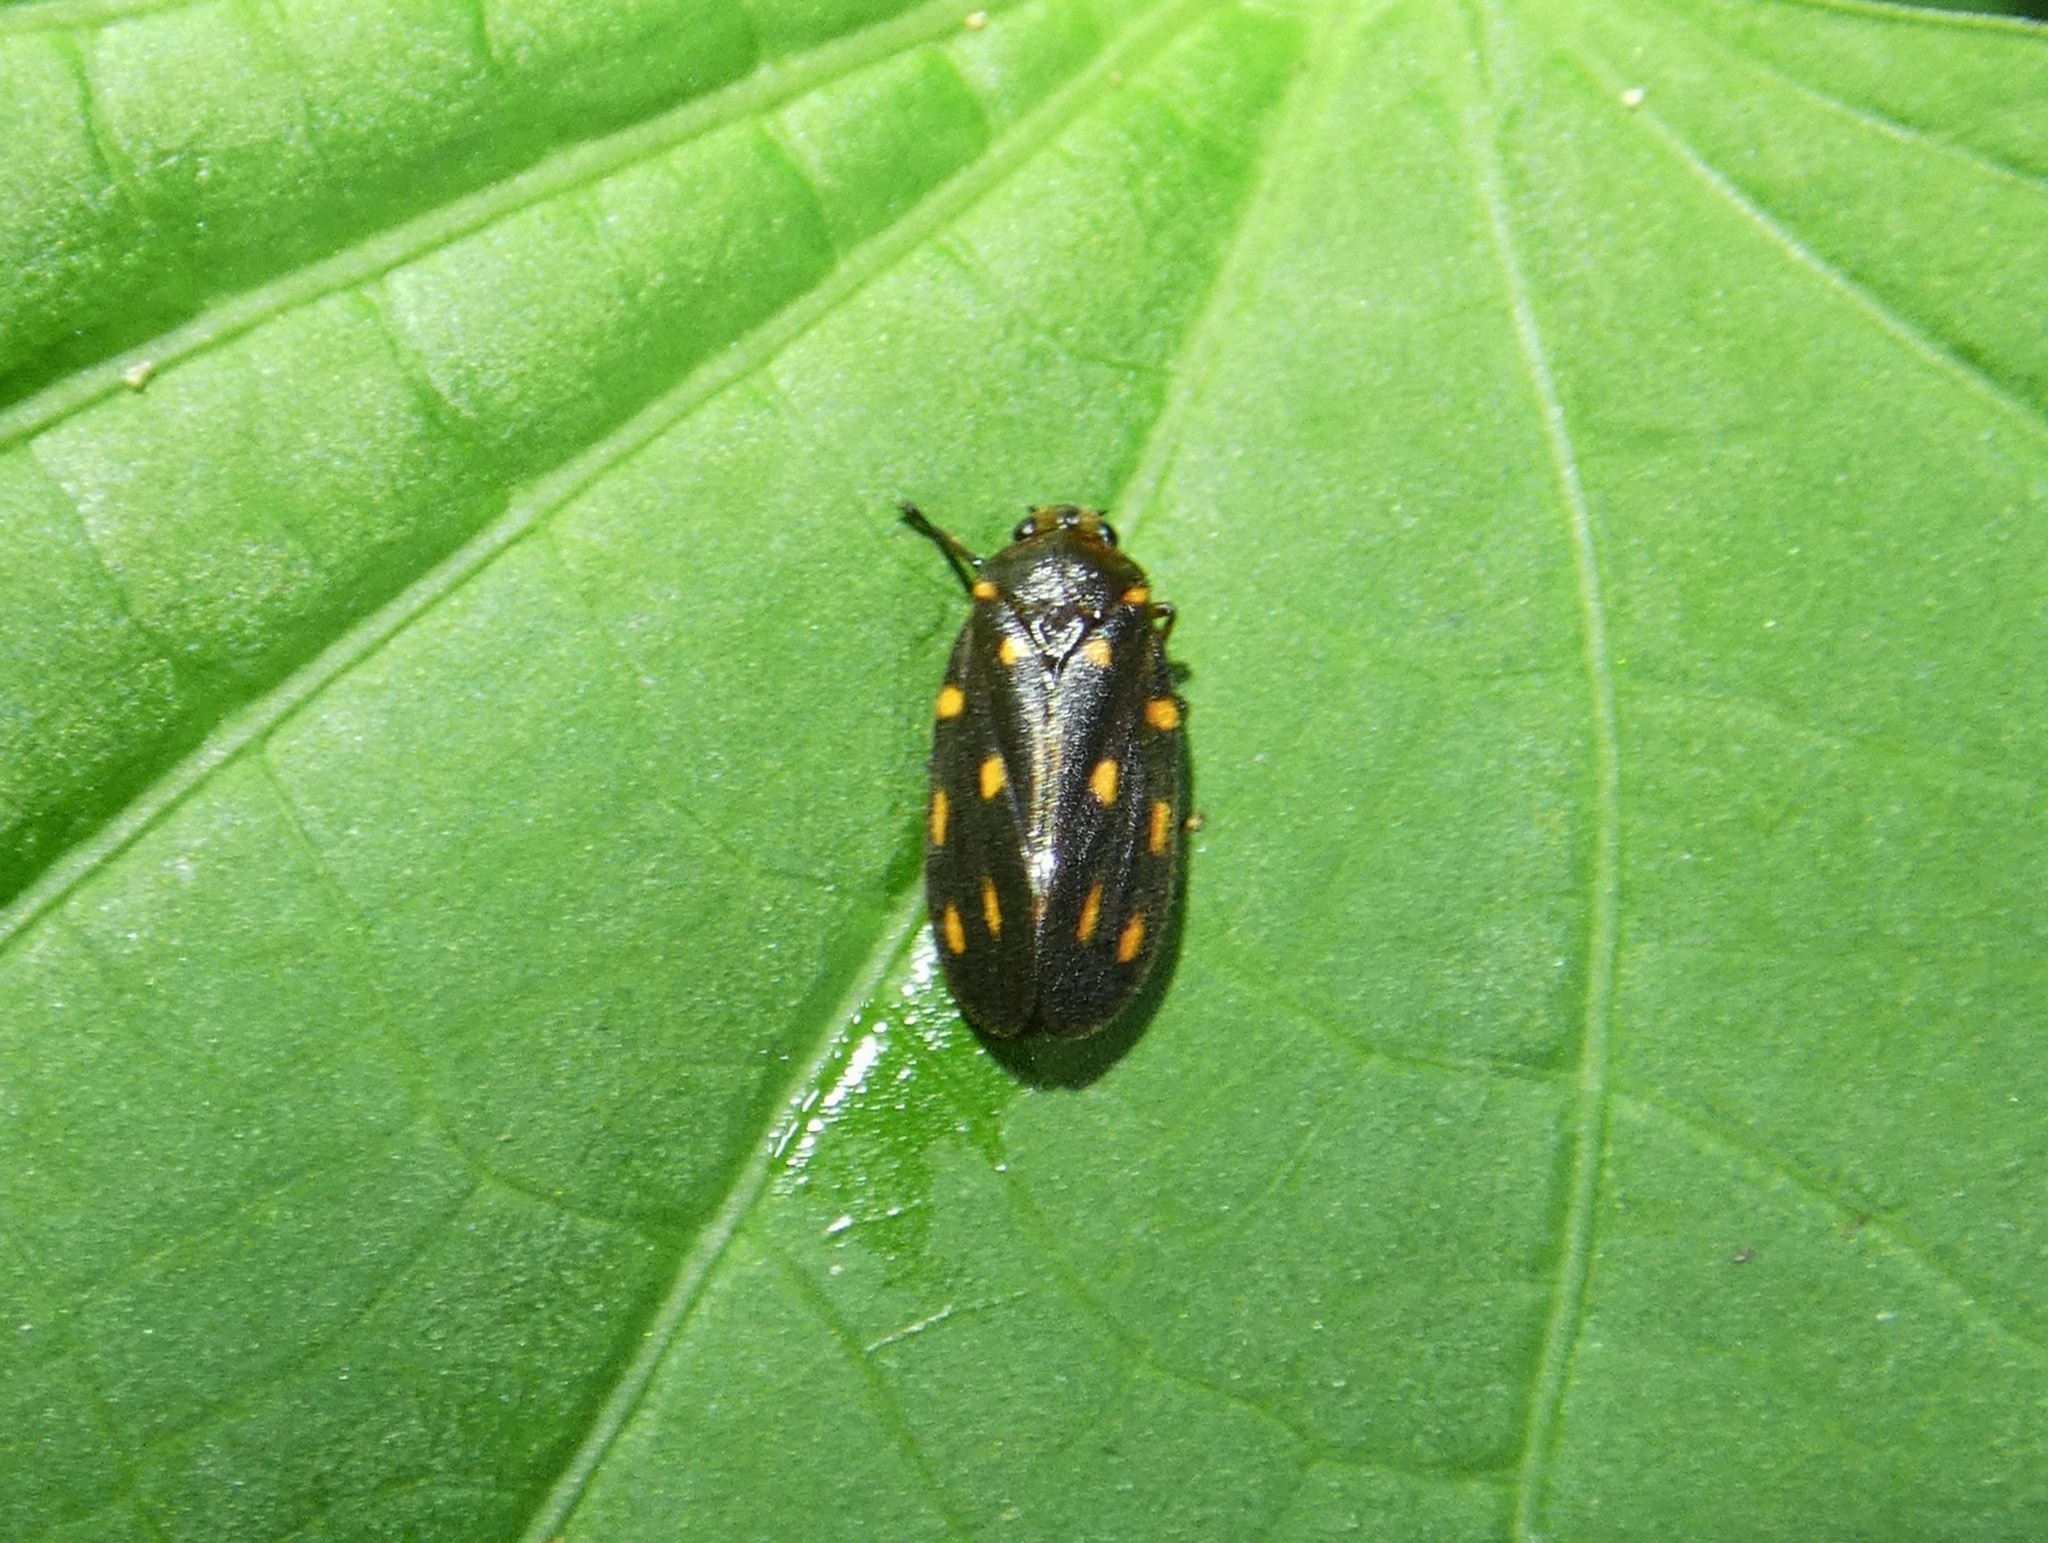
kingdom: Animalia
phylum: Arthropoda
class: Insecta
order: Hemiptera
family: Cercopidae
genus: Ocoaxo
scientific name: Ocoaxo septemnotatus
